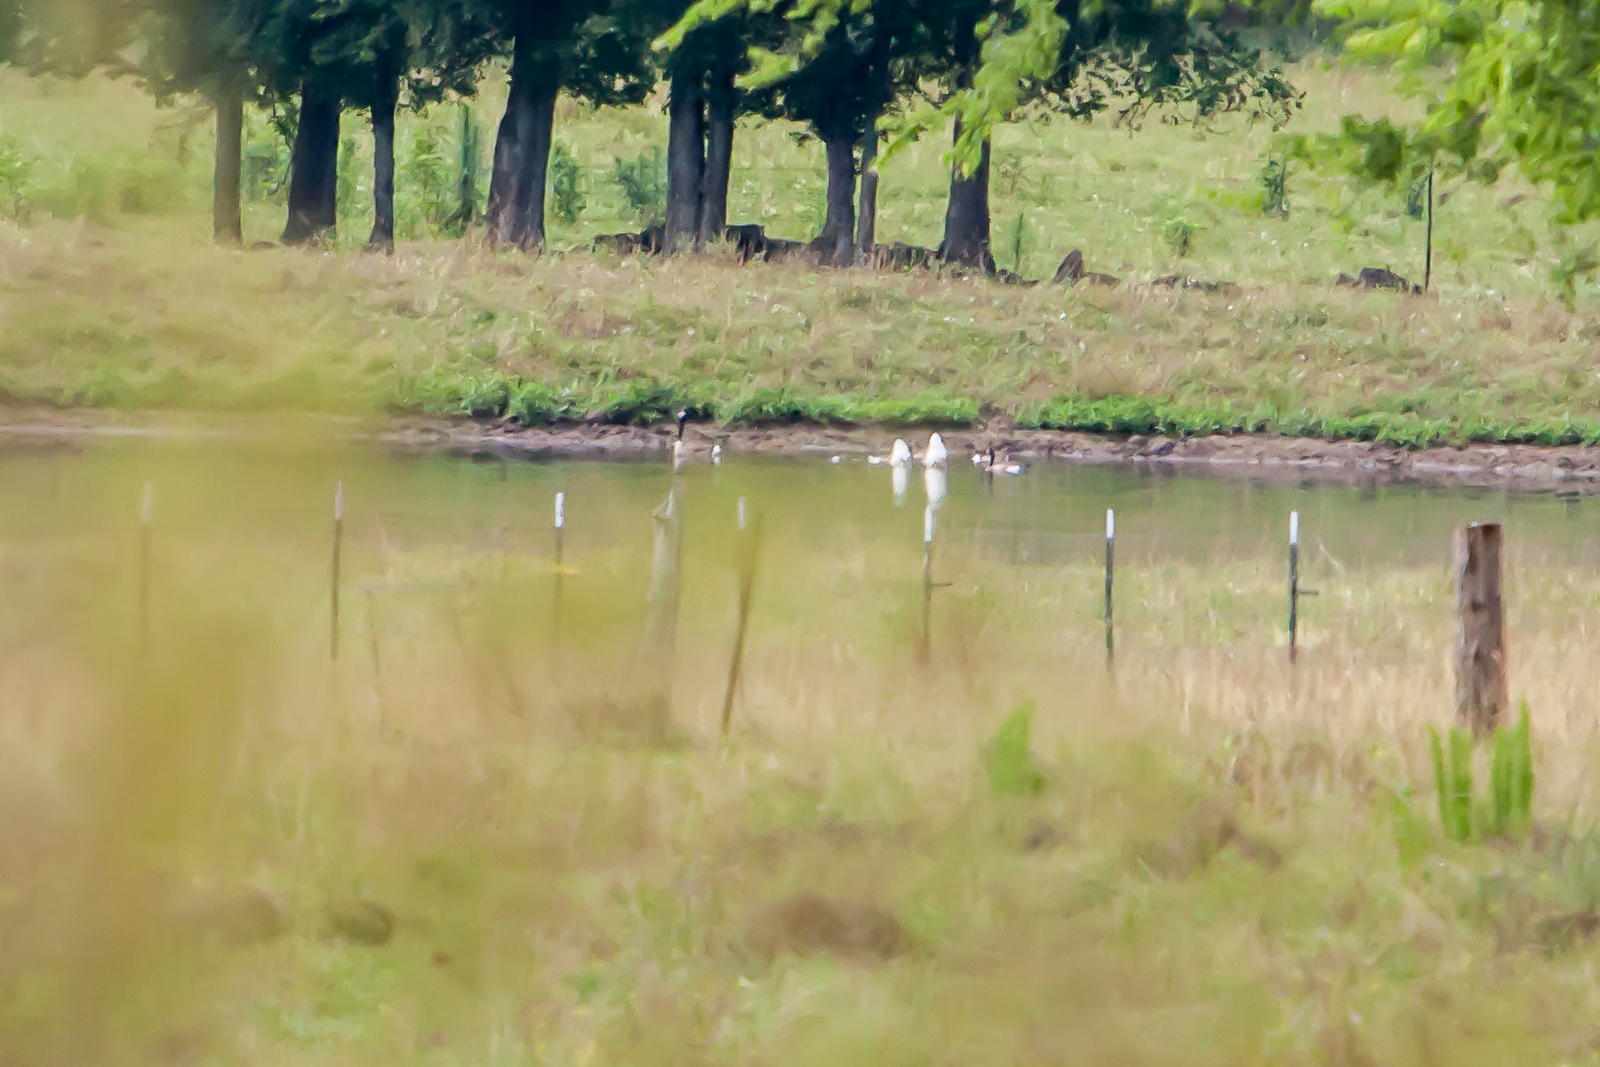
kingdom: Animalia
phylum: Chordata
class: Aves
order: Anseriformes
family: Anatidae
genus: Branta
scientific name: Branta canadensis
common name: Canada goose
